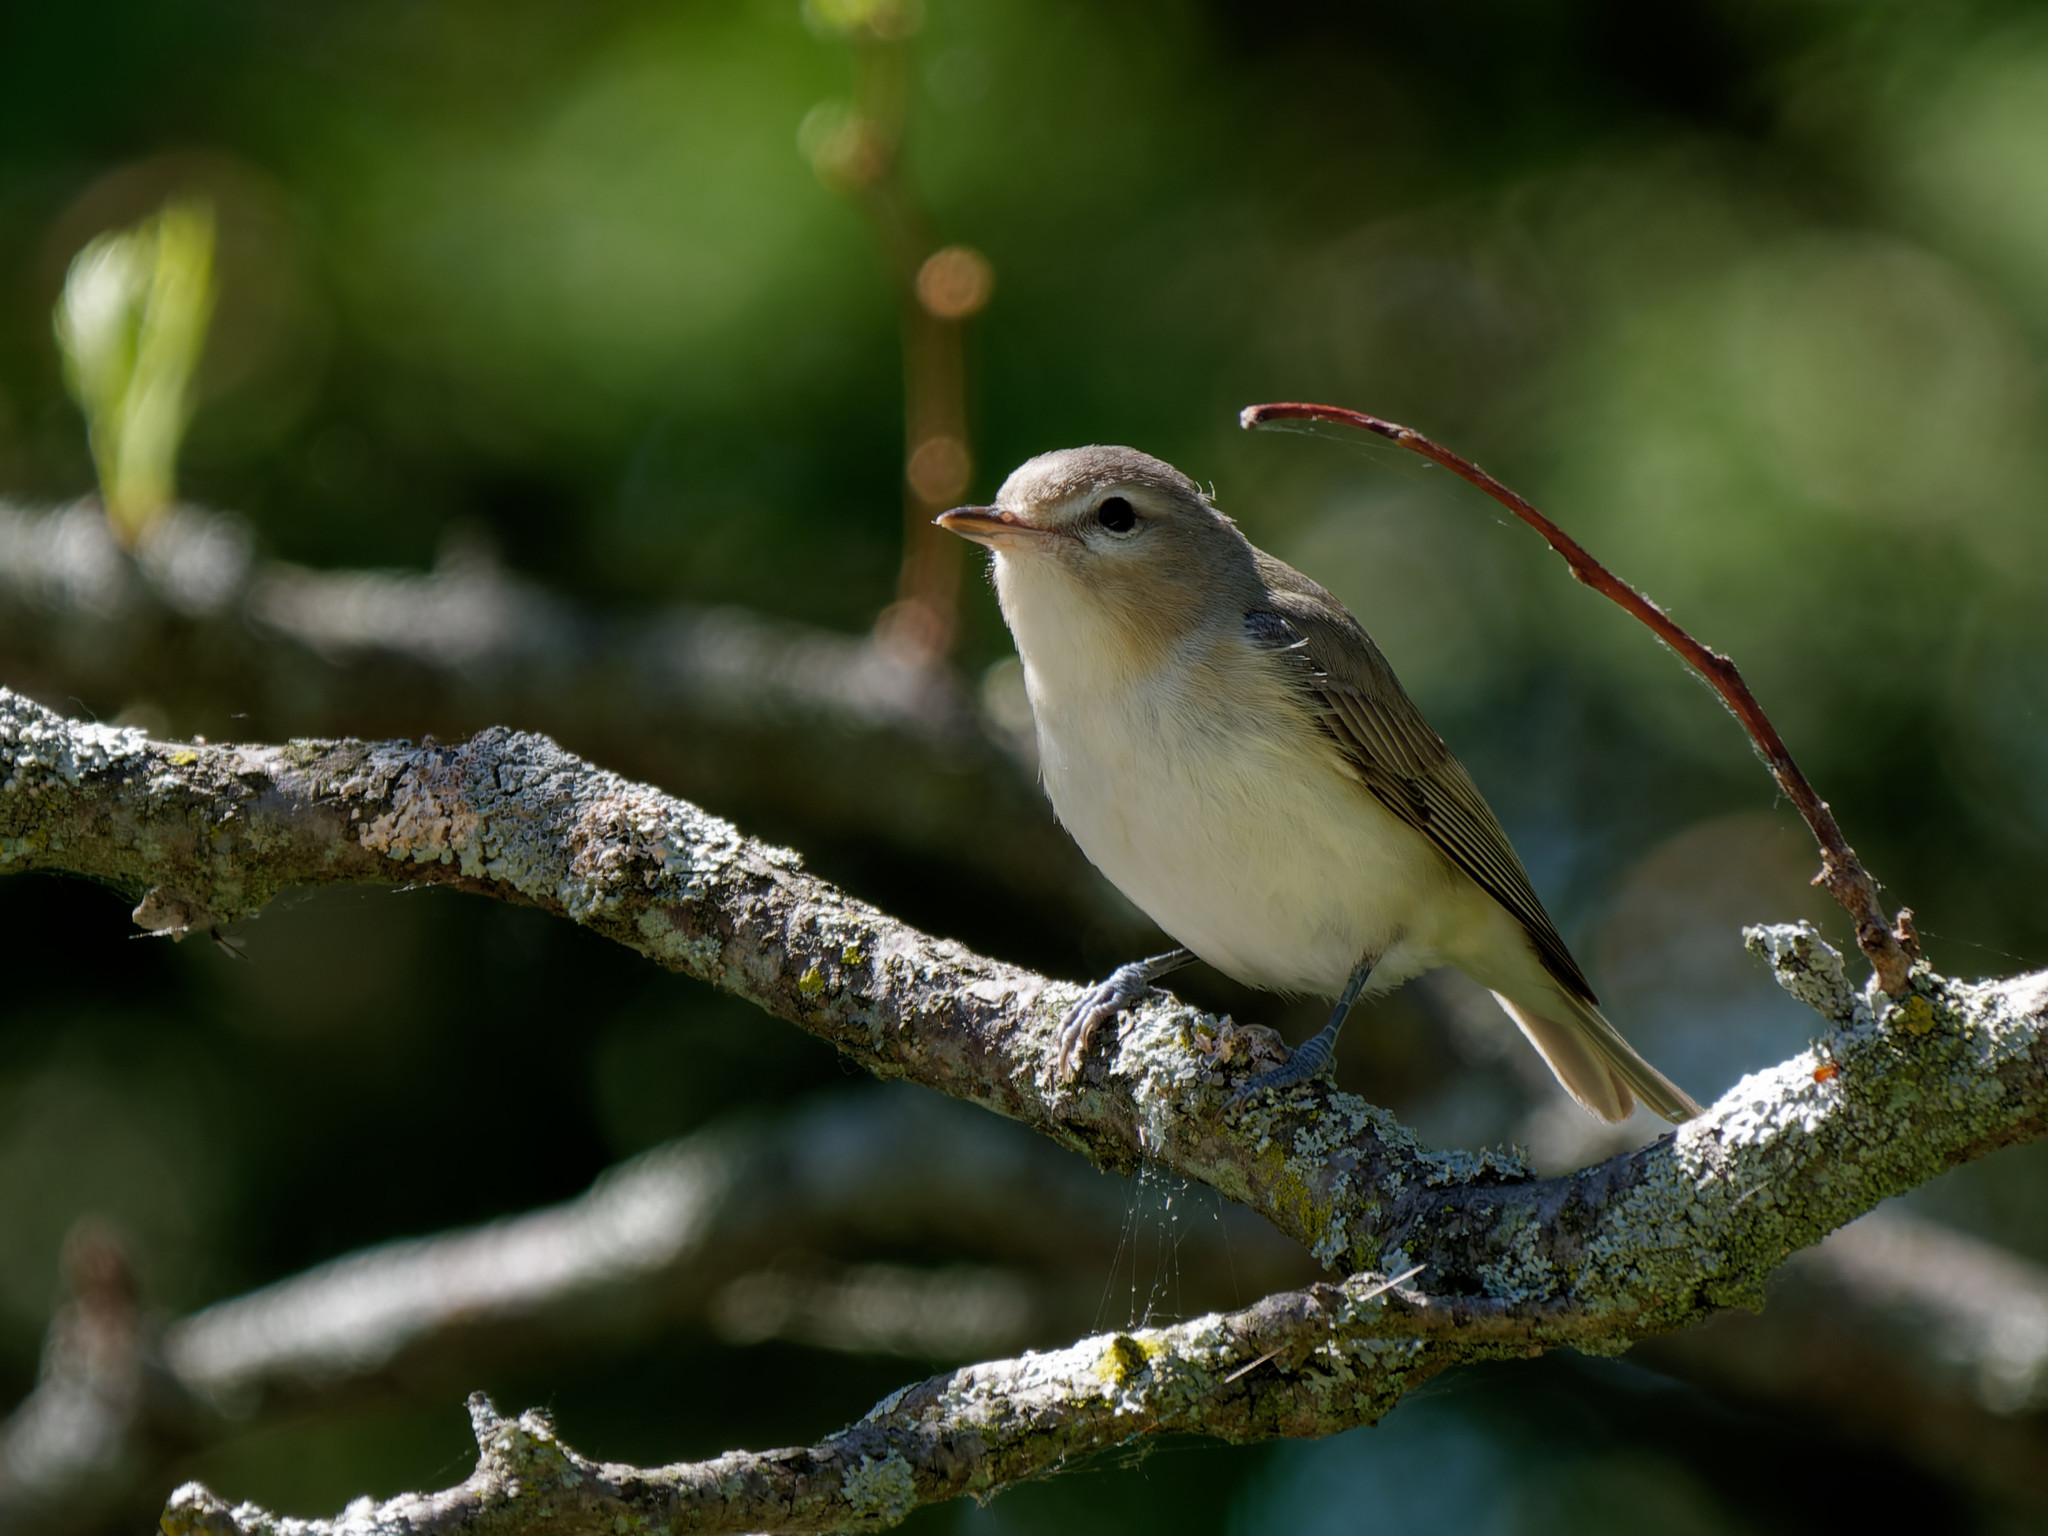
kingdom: Animalia
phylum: Chordata
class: Aves
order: Passeriformes
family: Vireonidae
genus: Vireo
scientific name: Vireo gilvus
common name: Warbling vireo
